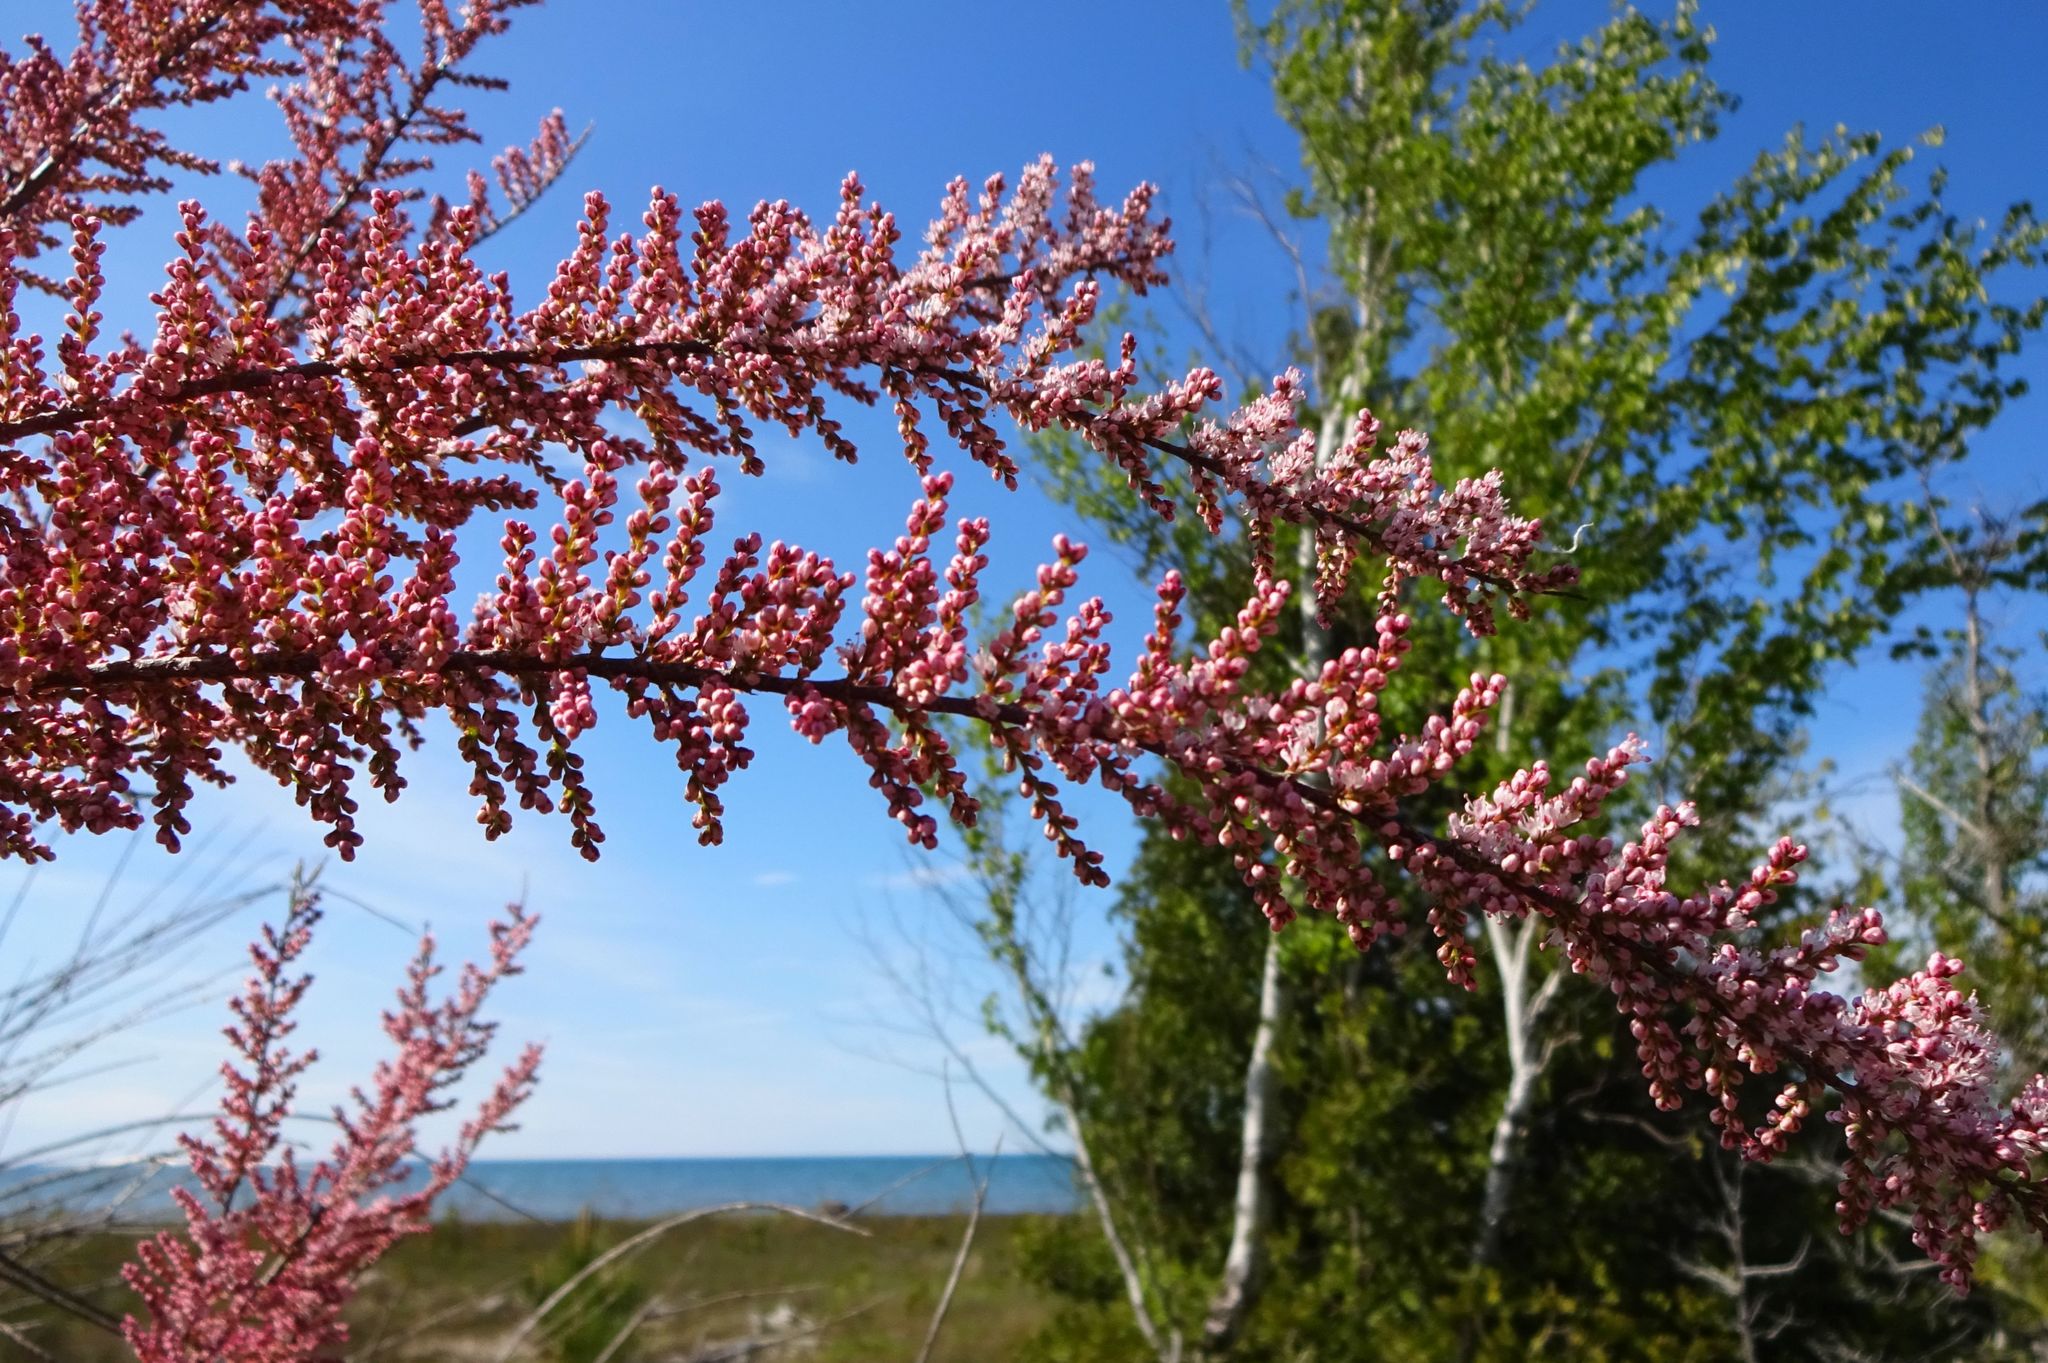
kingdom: Plantae
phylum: Tracheophyta
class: Magnoliopsida
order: Caryophyllales
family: Tamaricaceae
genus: Tamarix
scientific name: Tamarix ramosissima
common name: Pink tamarisk
